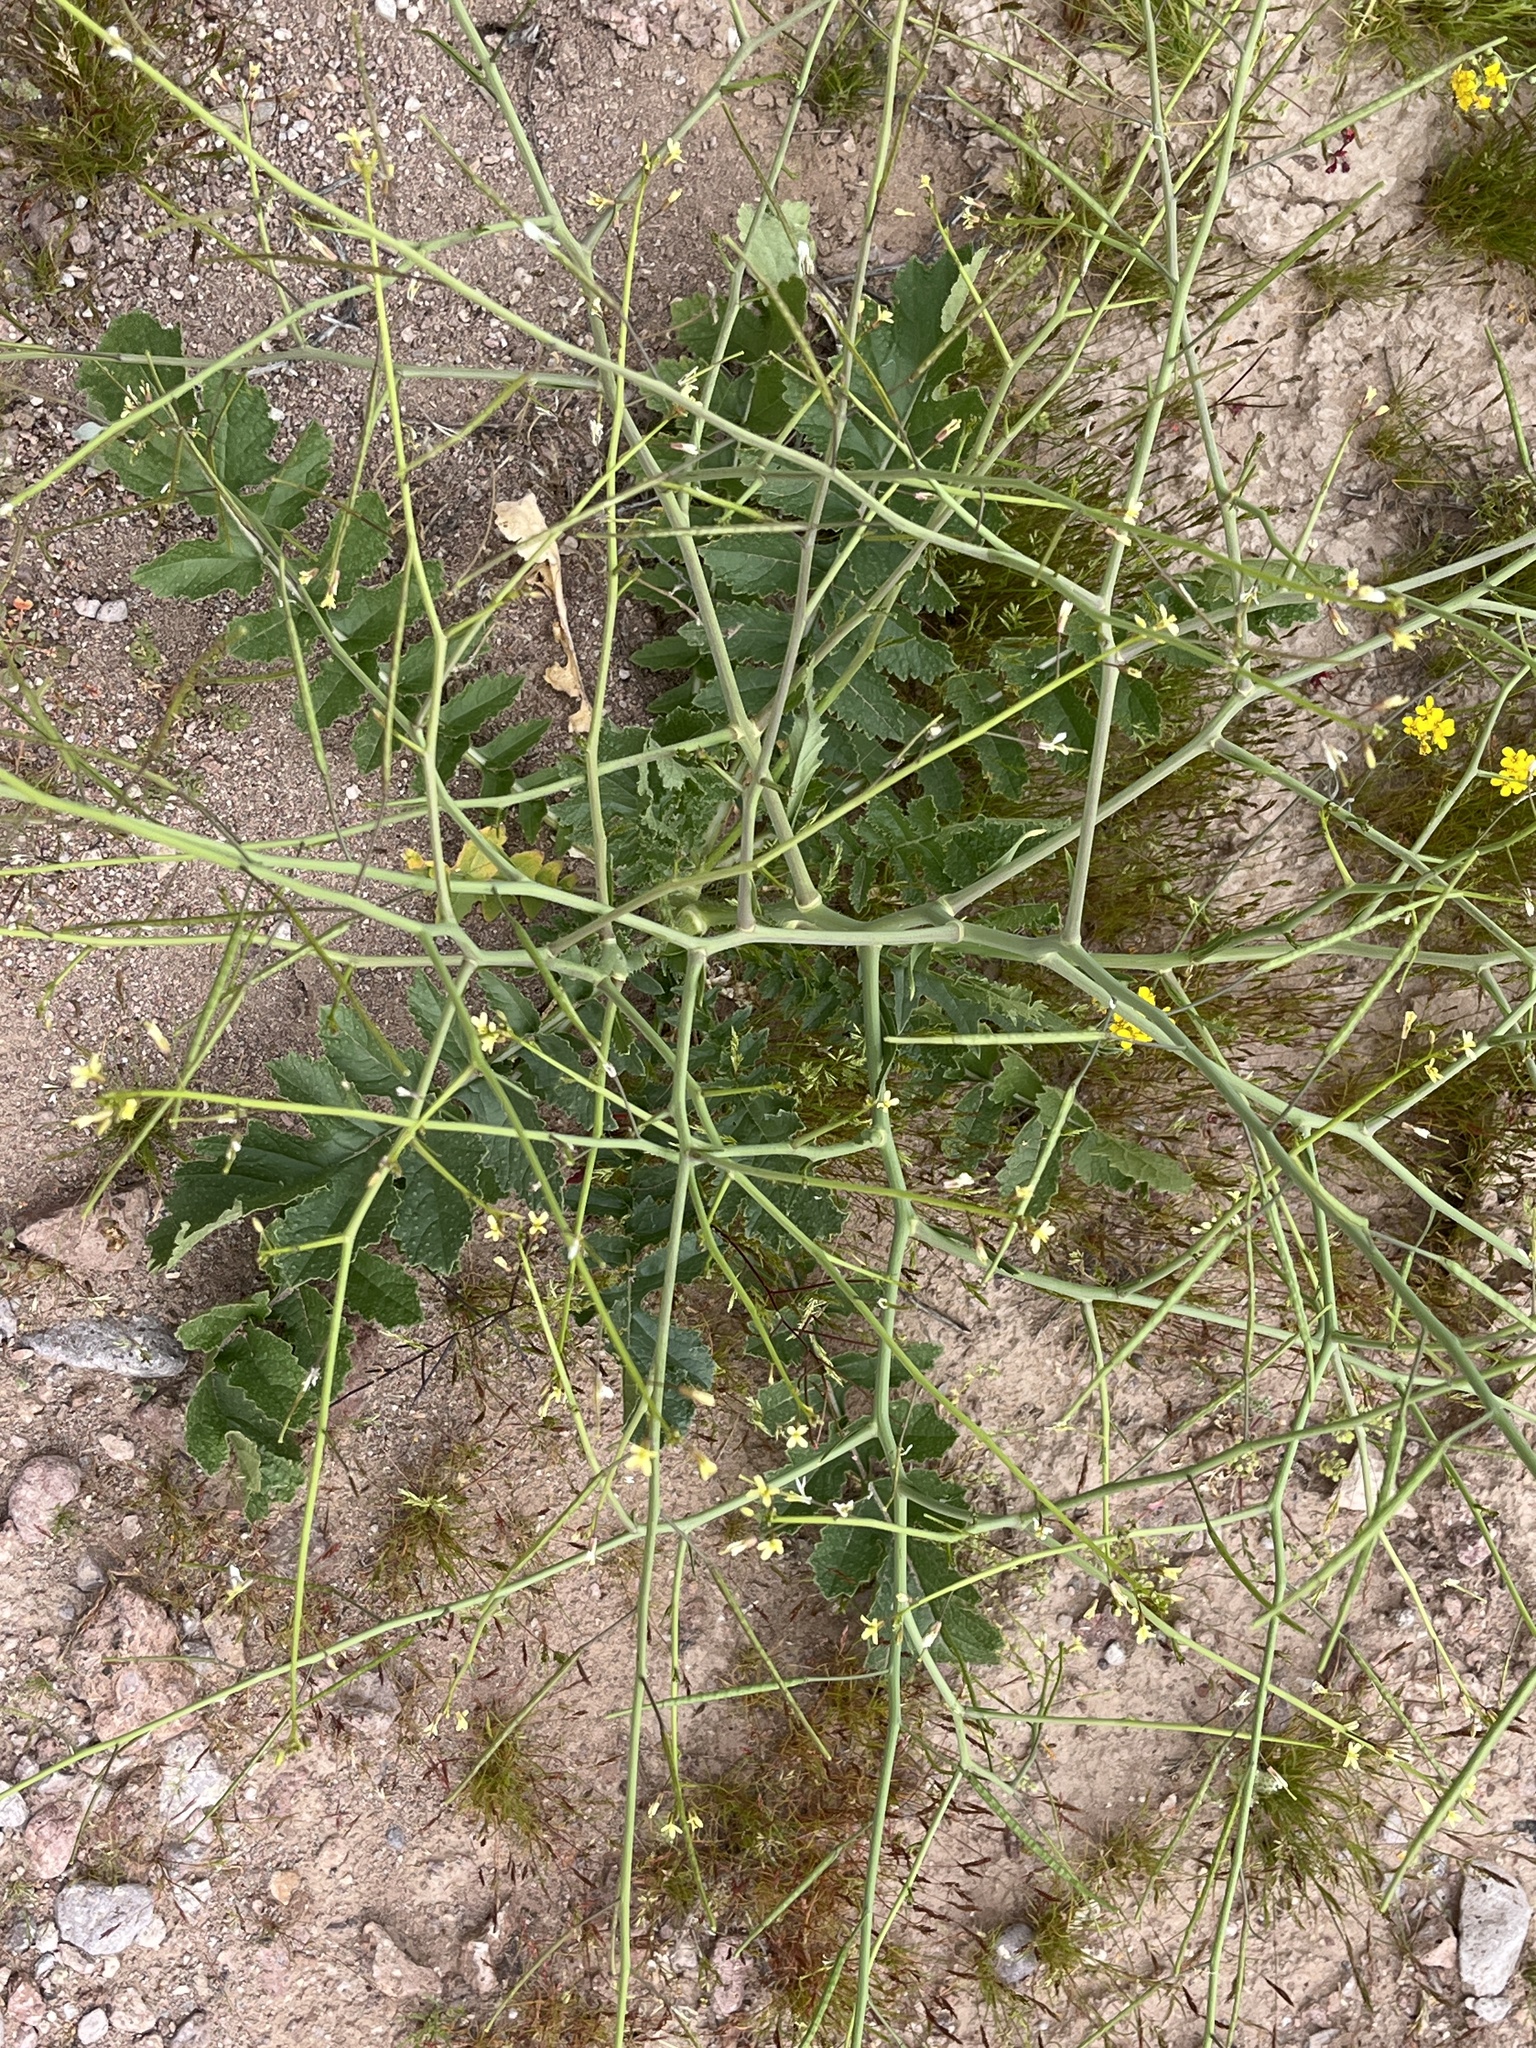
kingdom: Plantae
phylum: Tracheophyta
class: Magnoliopsida
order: Brassicales
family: Brassicaceae
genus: Brassica
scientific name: Brassica tournefortii
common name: Pale cabbage
